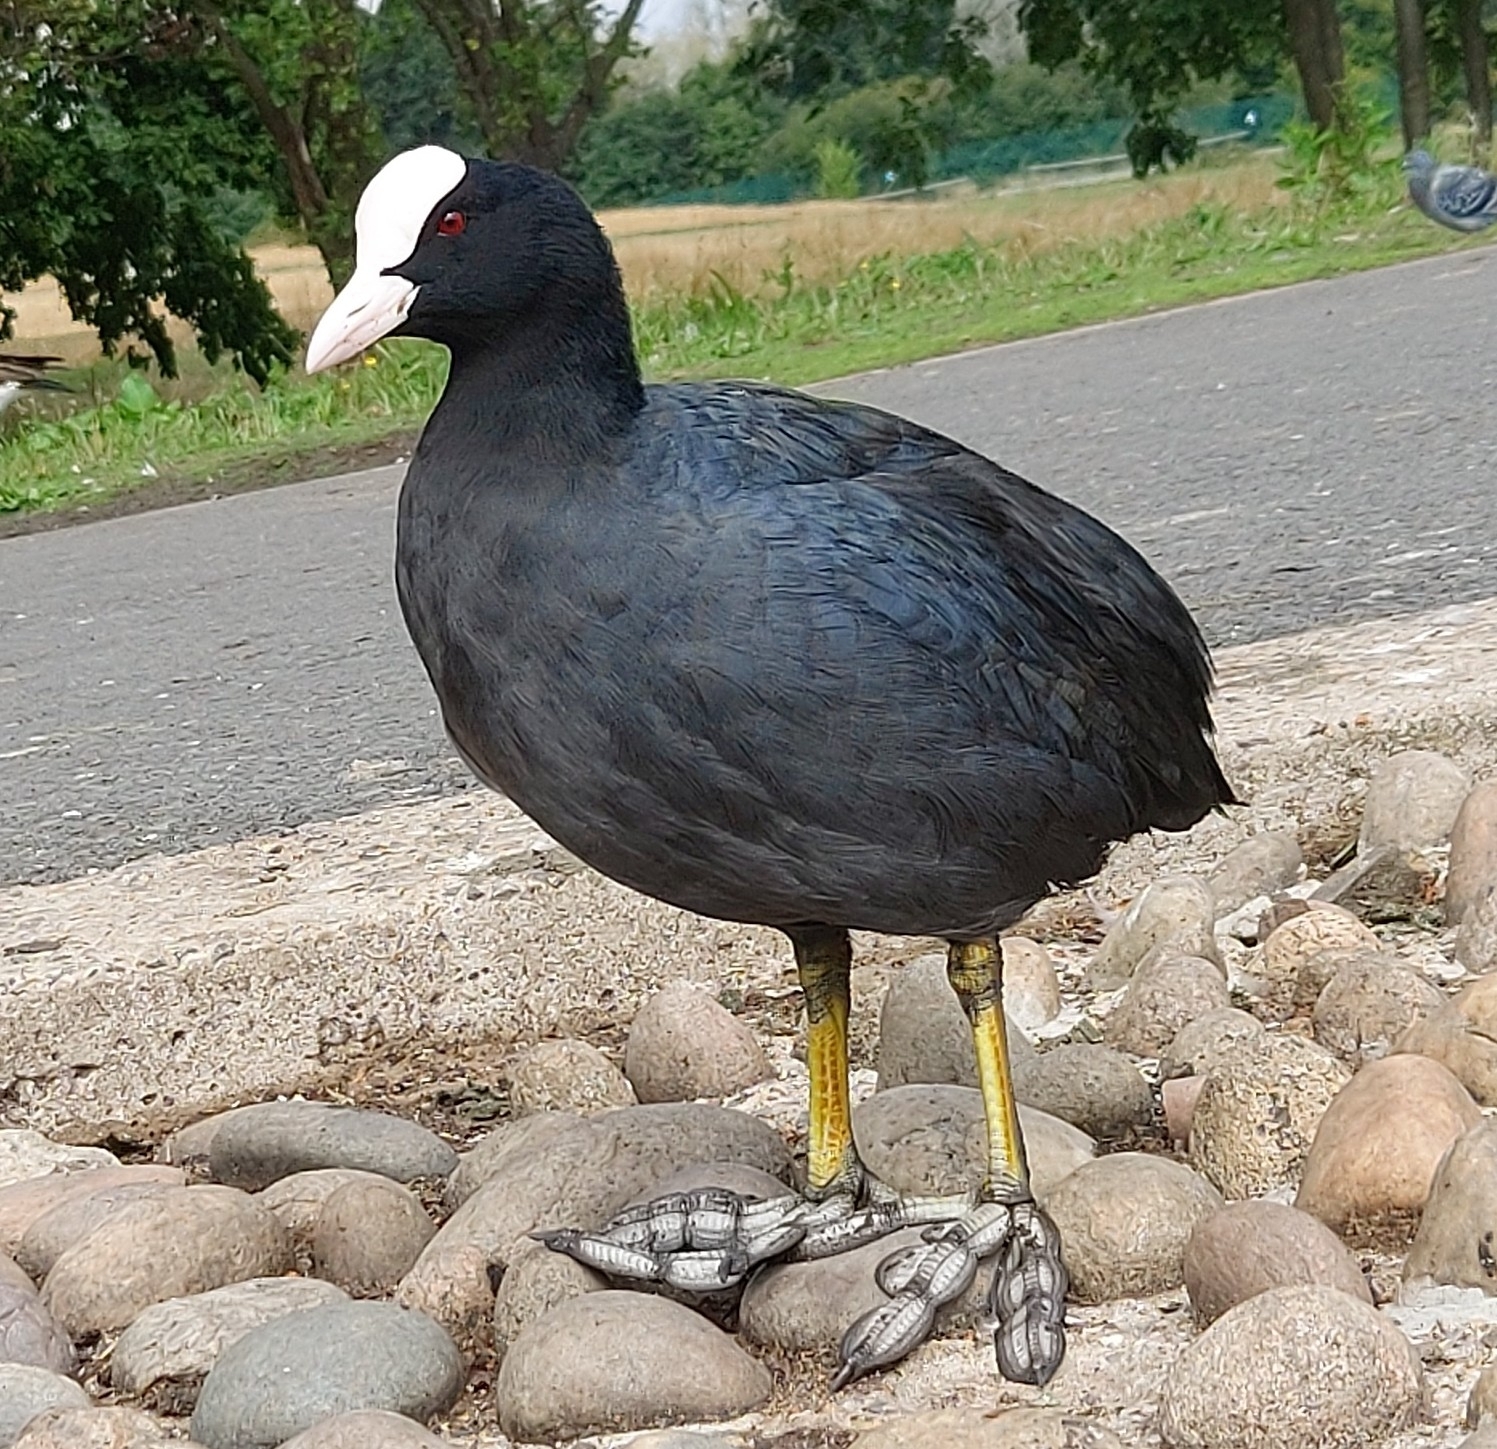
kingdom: Animalia
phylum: Chordata
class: Aves
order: Gruiformes
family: Rallidae
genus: Fulica
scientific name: Fulica atra
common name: Eurasian coot
